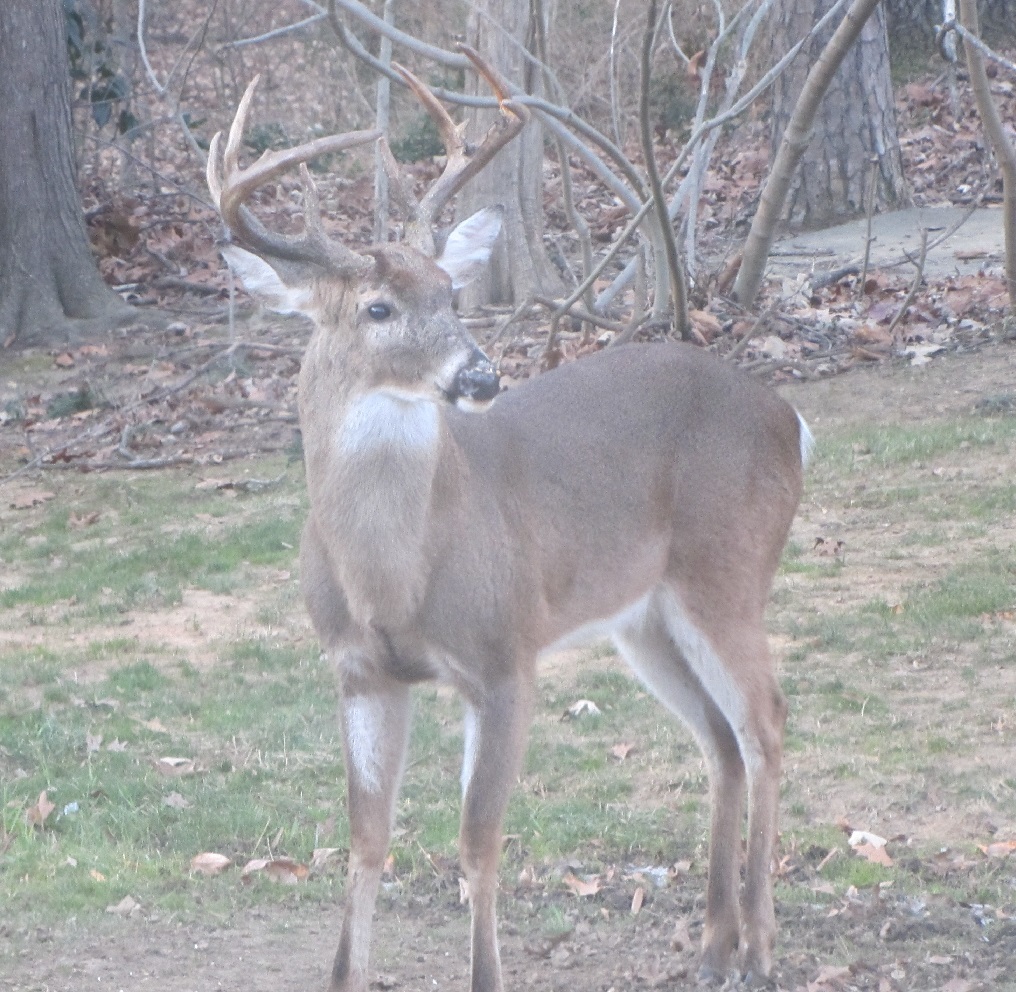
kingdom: Animalia
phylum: Chordata
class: Mammalia
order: Artiodactyla
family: Cervidae
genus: Odocoileus
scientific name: Odocoileus virginianus
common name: White-tailed deer
